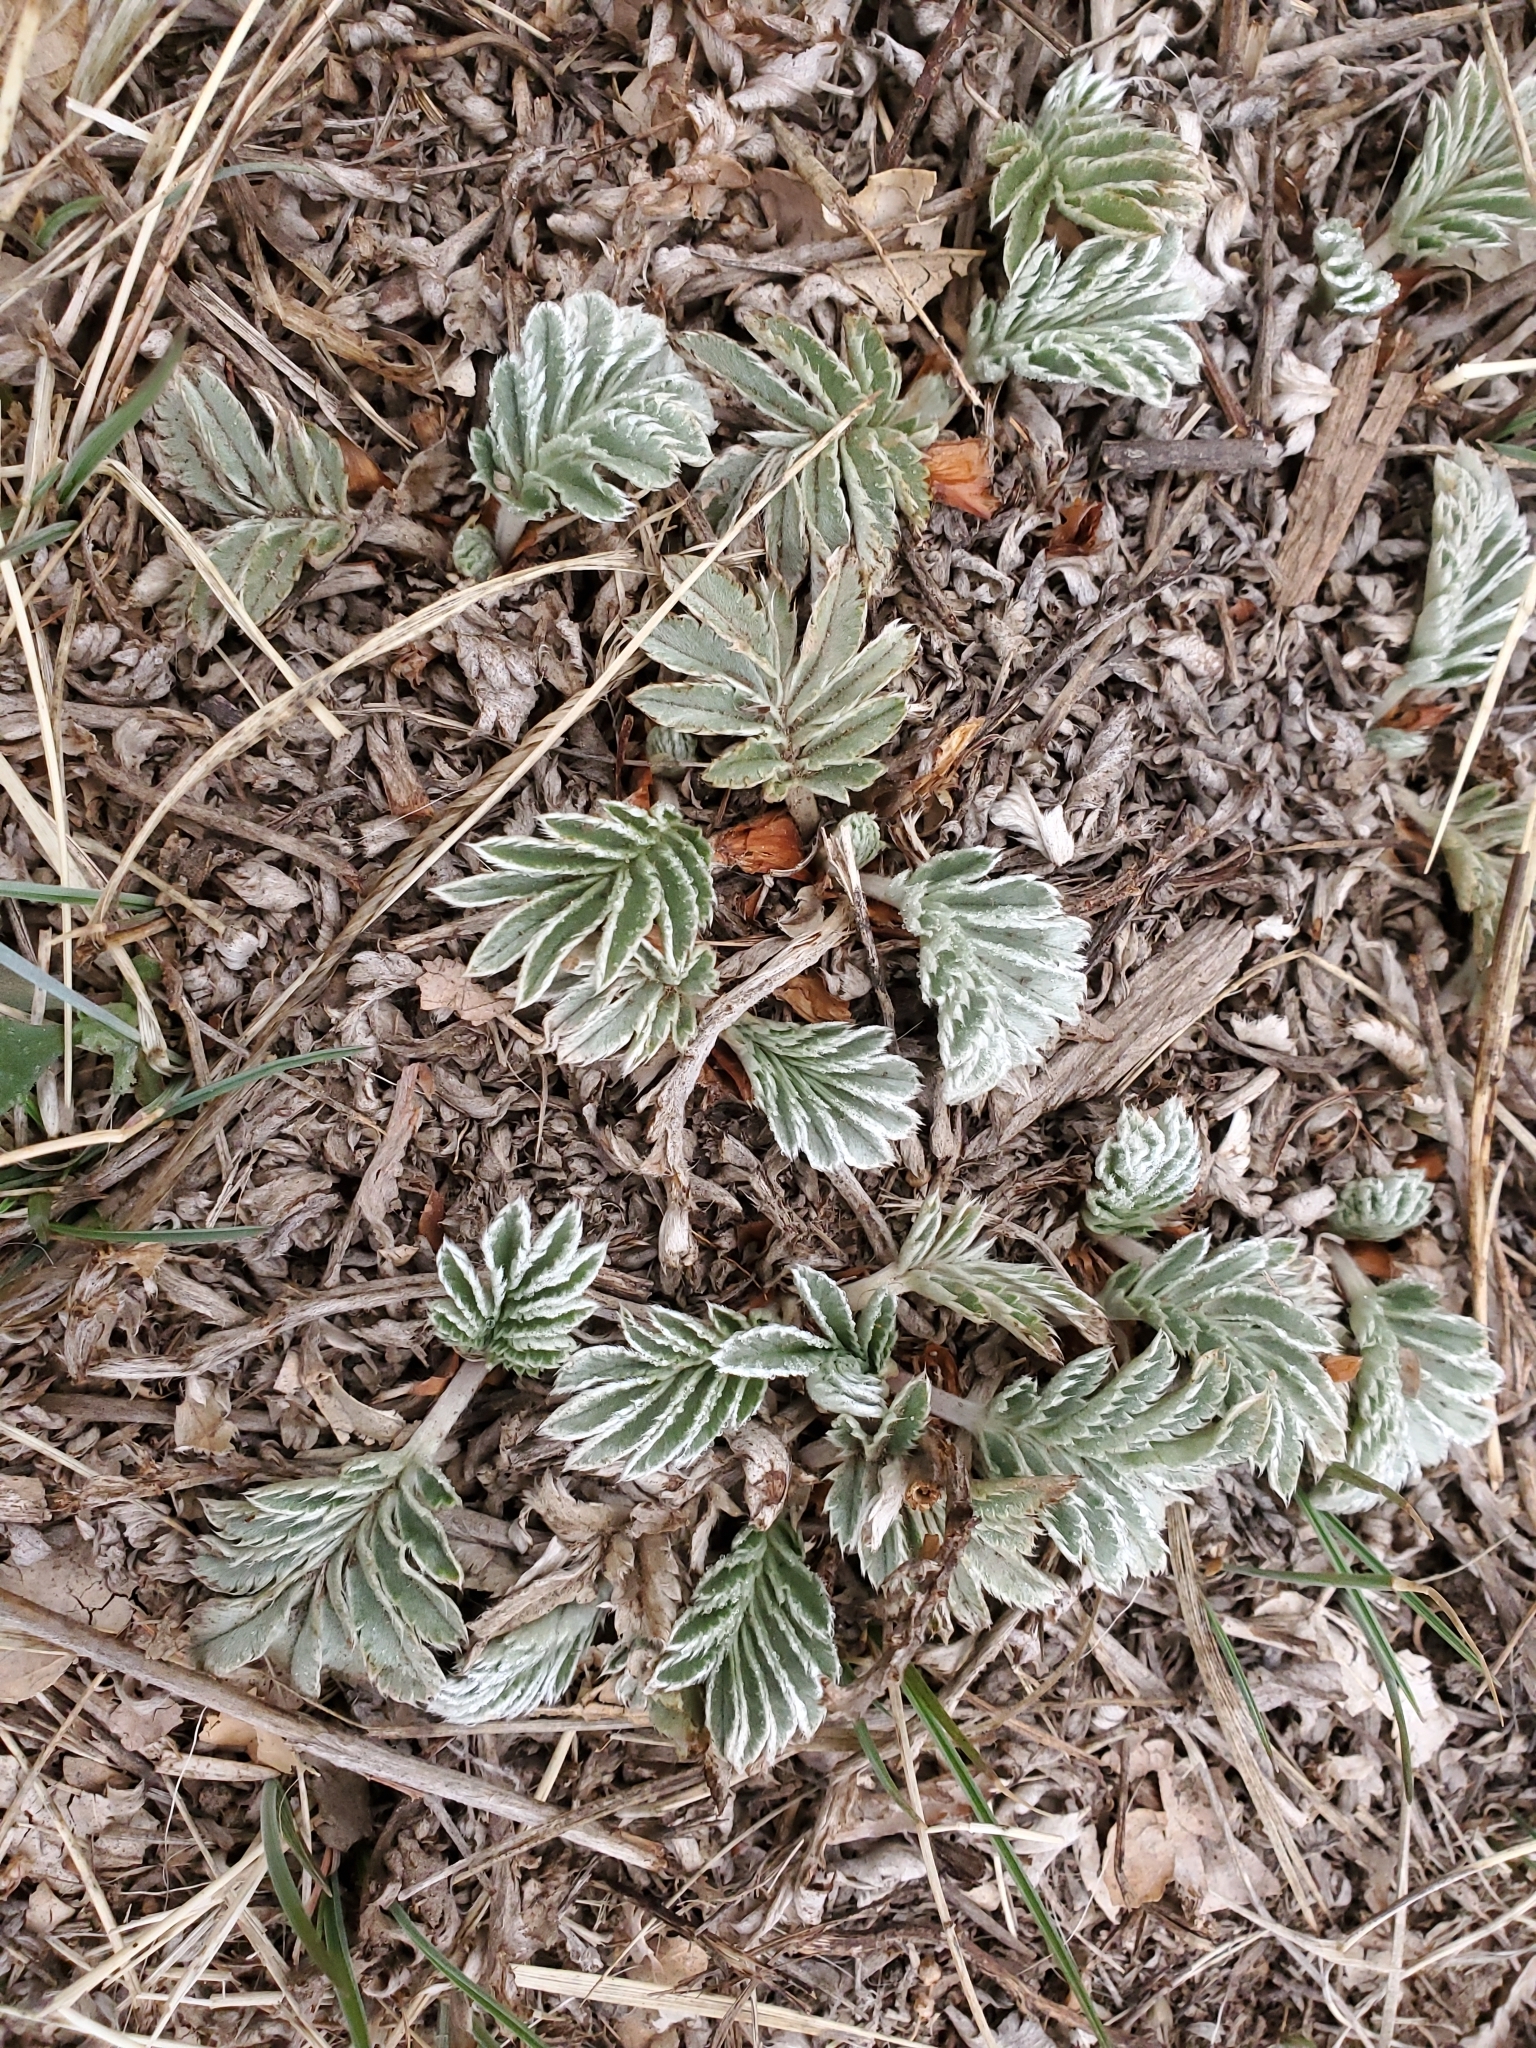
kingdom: Plantae
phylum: Tracheophyta
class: Magnoliopsida
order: Rosales
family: Rosaceae
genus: Potentilla
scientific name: Potentilla hippiana
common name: Woolly cinquefoil
